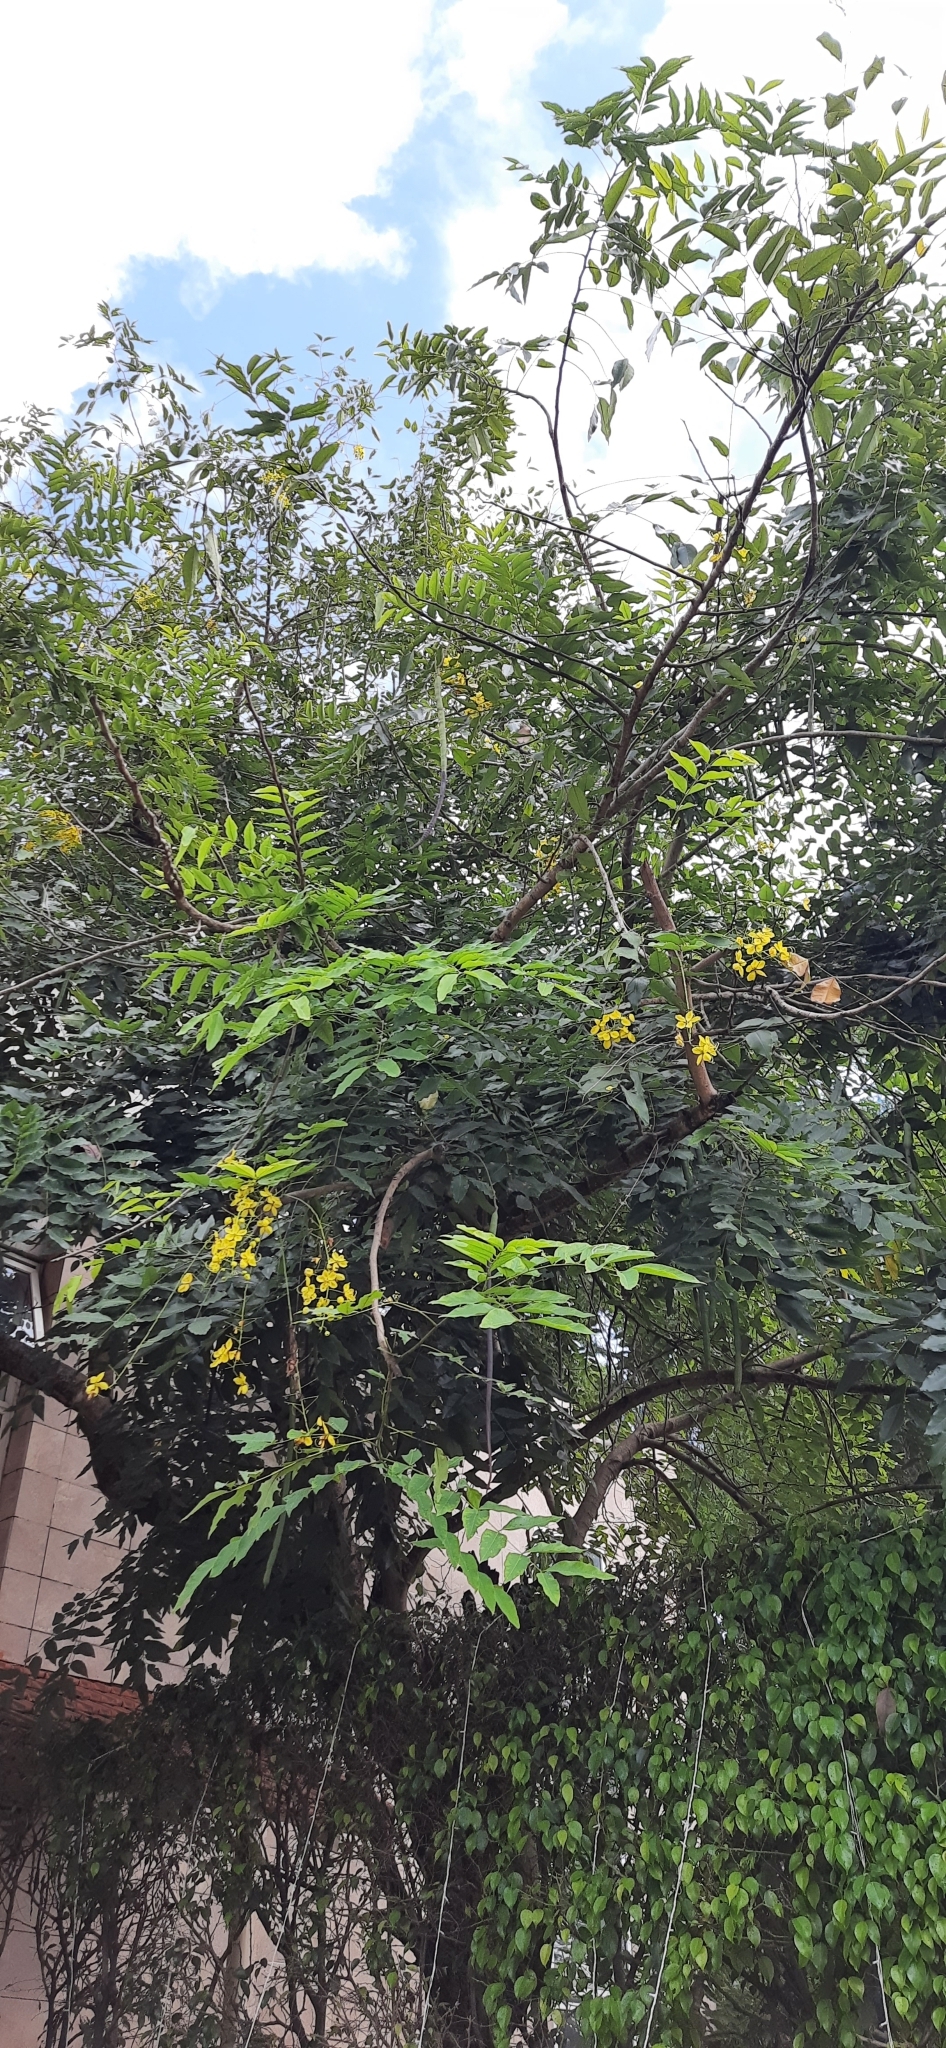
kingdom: Plantae
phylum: Tracheophyta
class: Magnoliopsida
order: Fabales
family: Fabaceae
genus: Cassia
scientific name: Cassia fistula
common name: Golden shower
